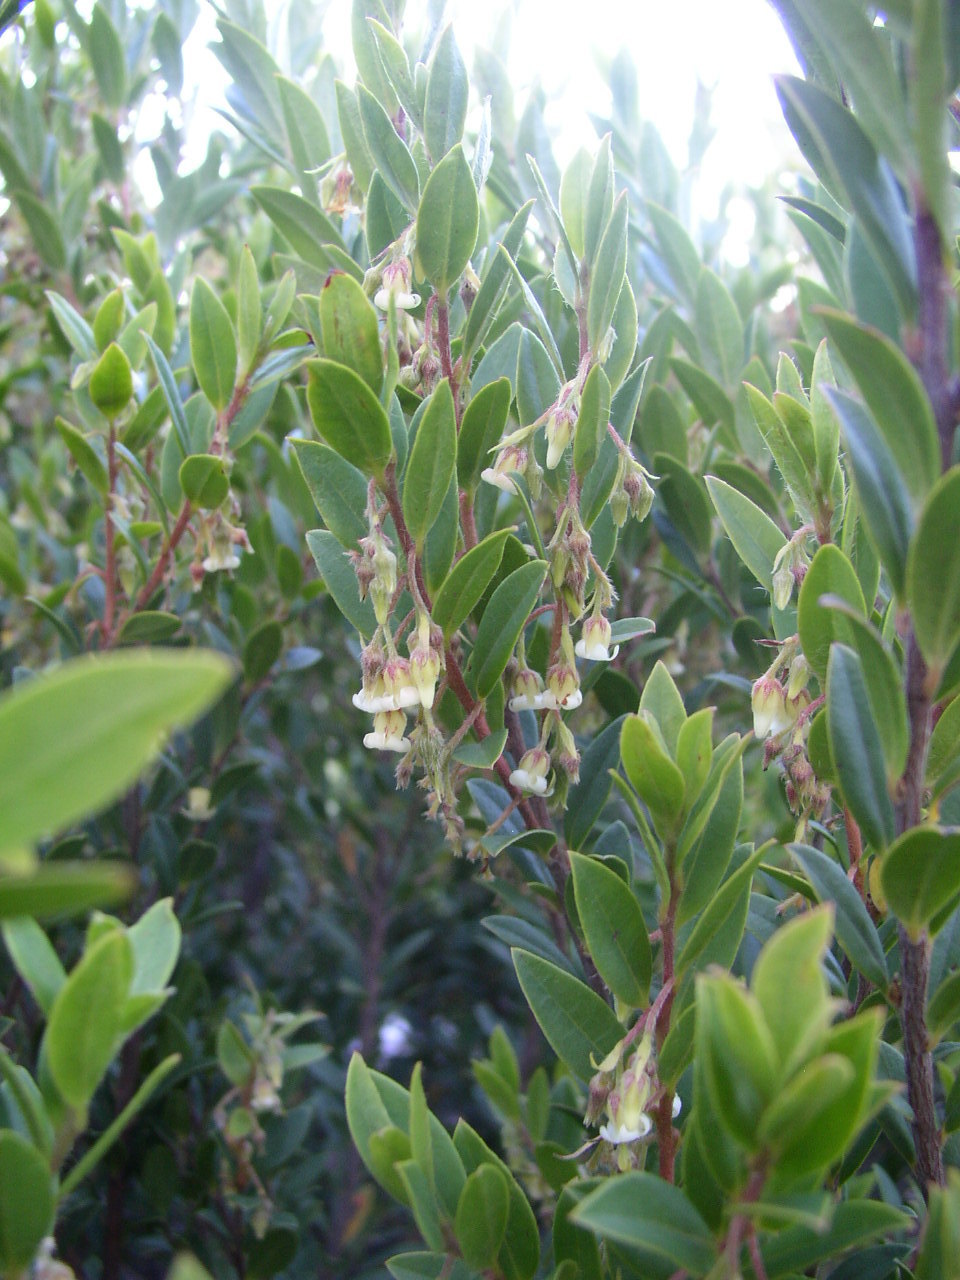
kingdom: Plantae
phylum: Tracheophyta
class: Magnoliopsida
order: Ericales
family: Ebenaceae
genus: Diospyros
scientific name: Diospyros glabra
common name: Fynbos star apple
